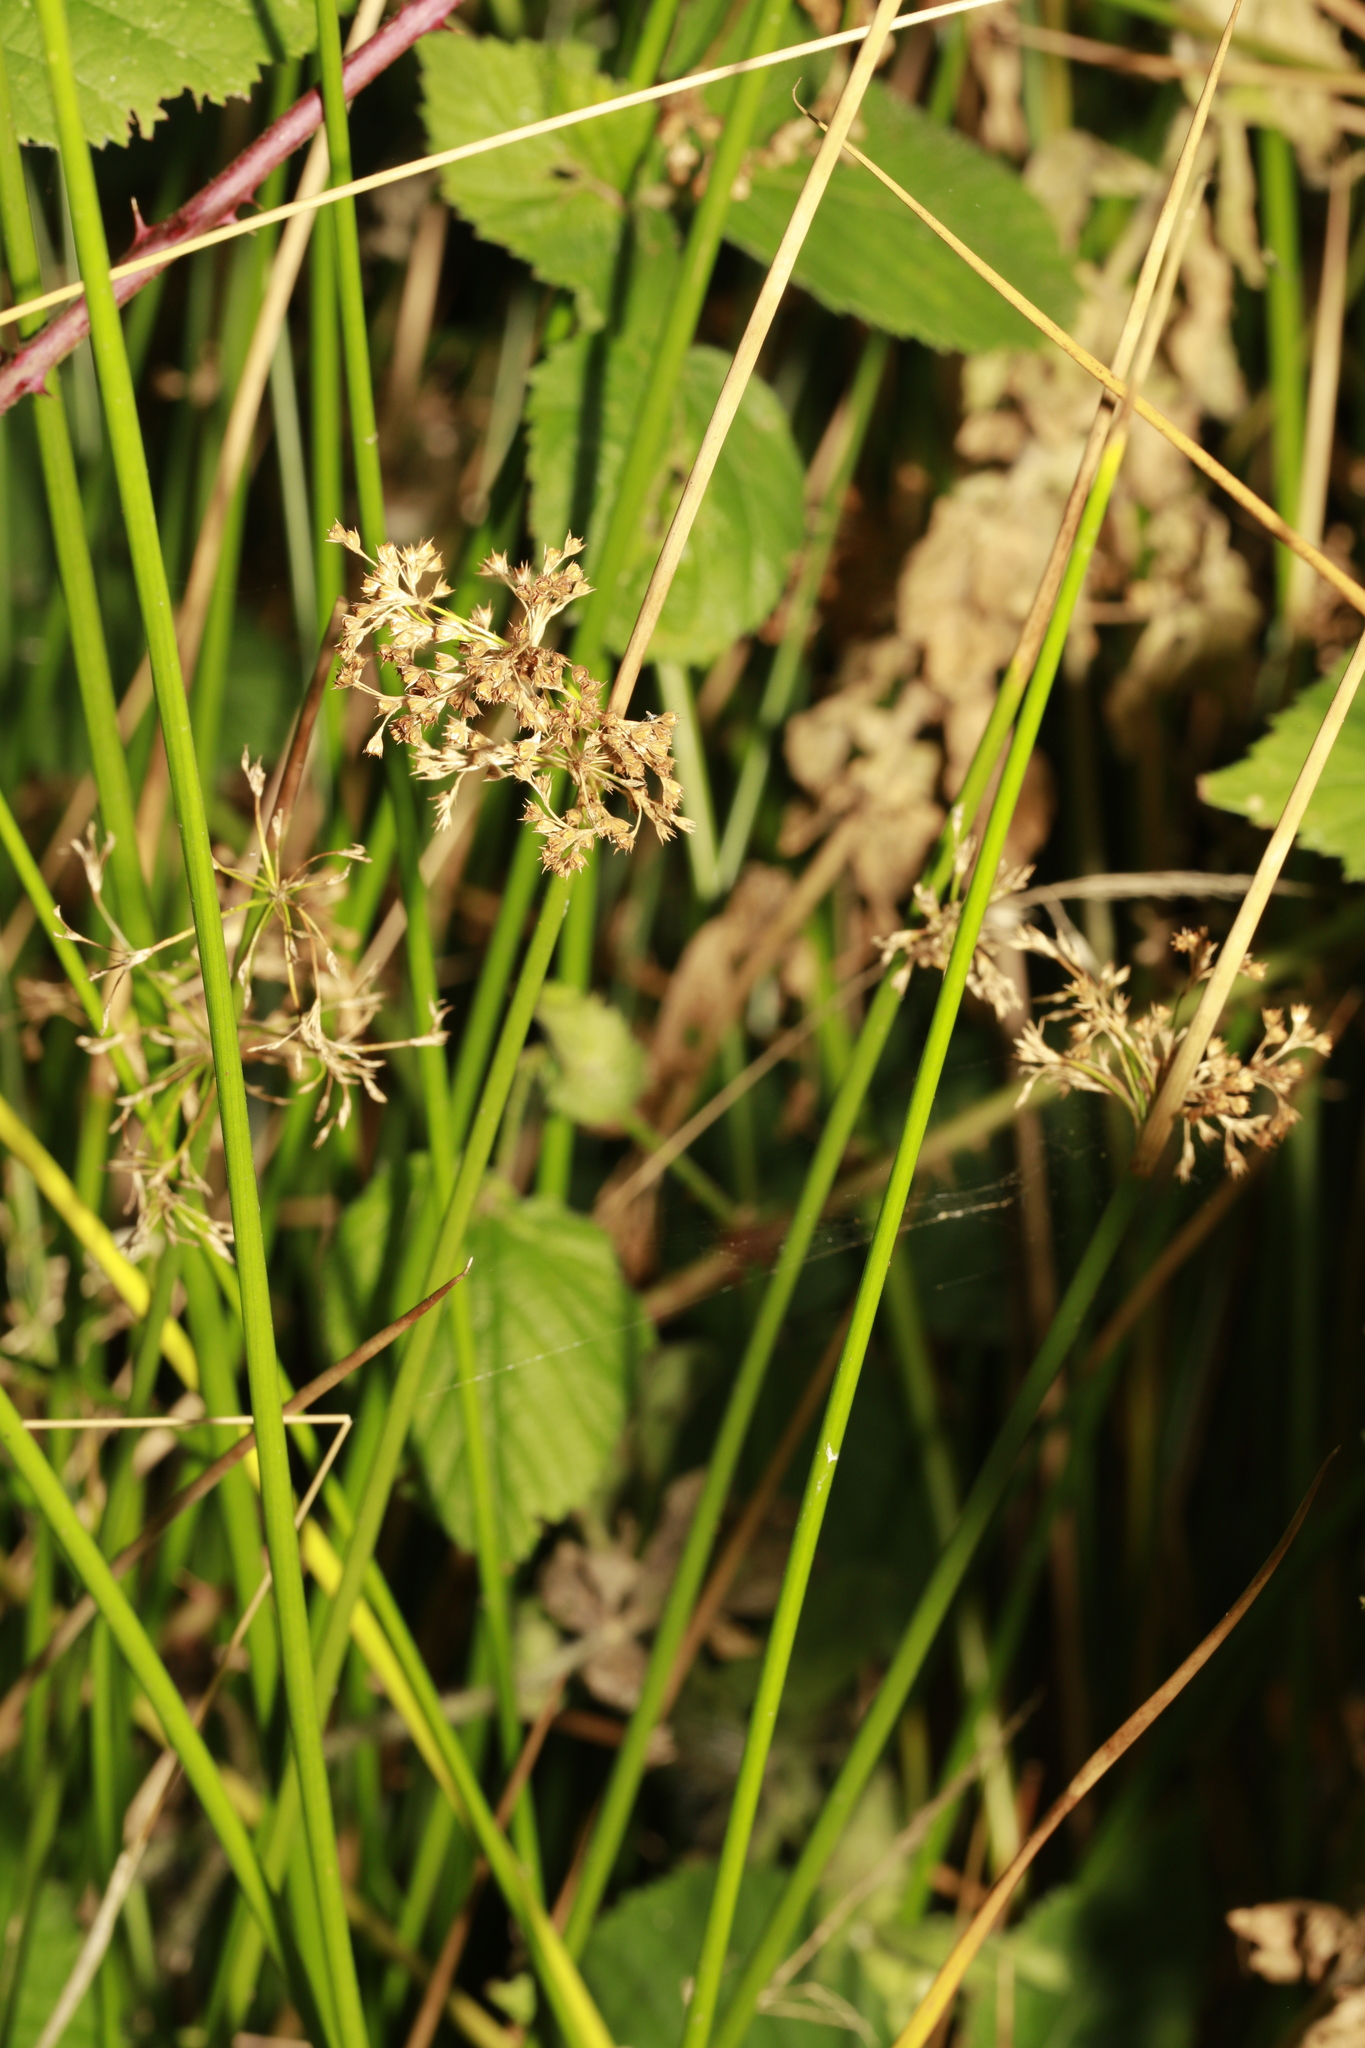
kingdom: Plantae
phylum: Tracheophyta
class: Liliopsida
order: Poales
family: Juncaceae
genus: Juncus
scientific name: Juncus effusus
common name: Soft rush
